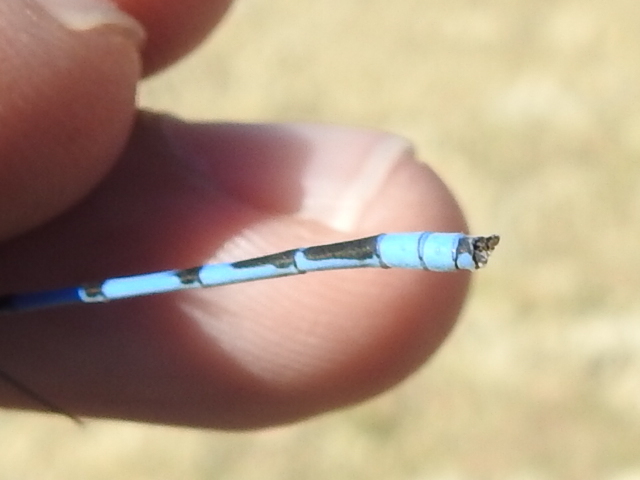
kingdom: Animalia
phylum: Arthropoda
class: Insecta
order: Odonata
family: Coenagrionidae
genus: Enallagma
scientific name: Enallagma civile
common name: Damselfly
